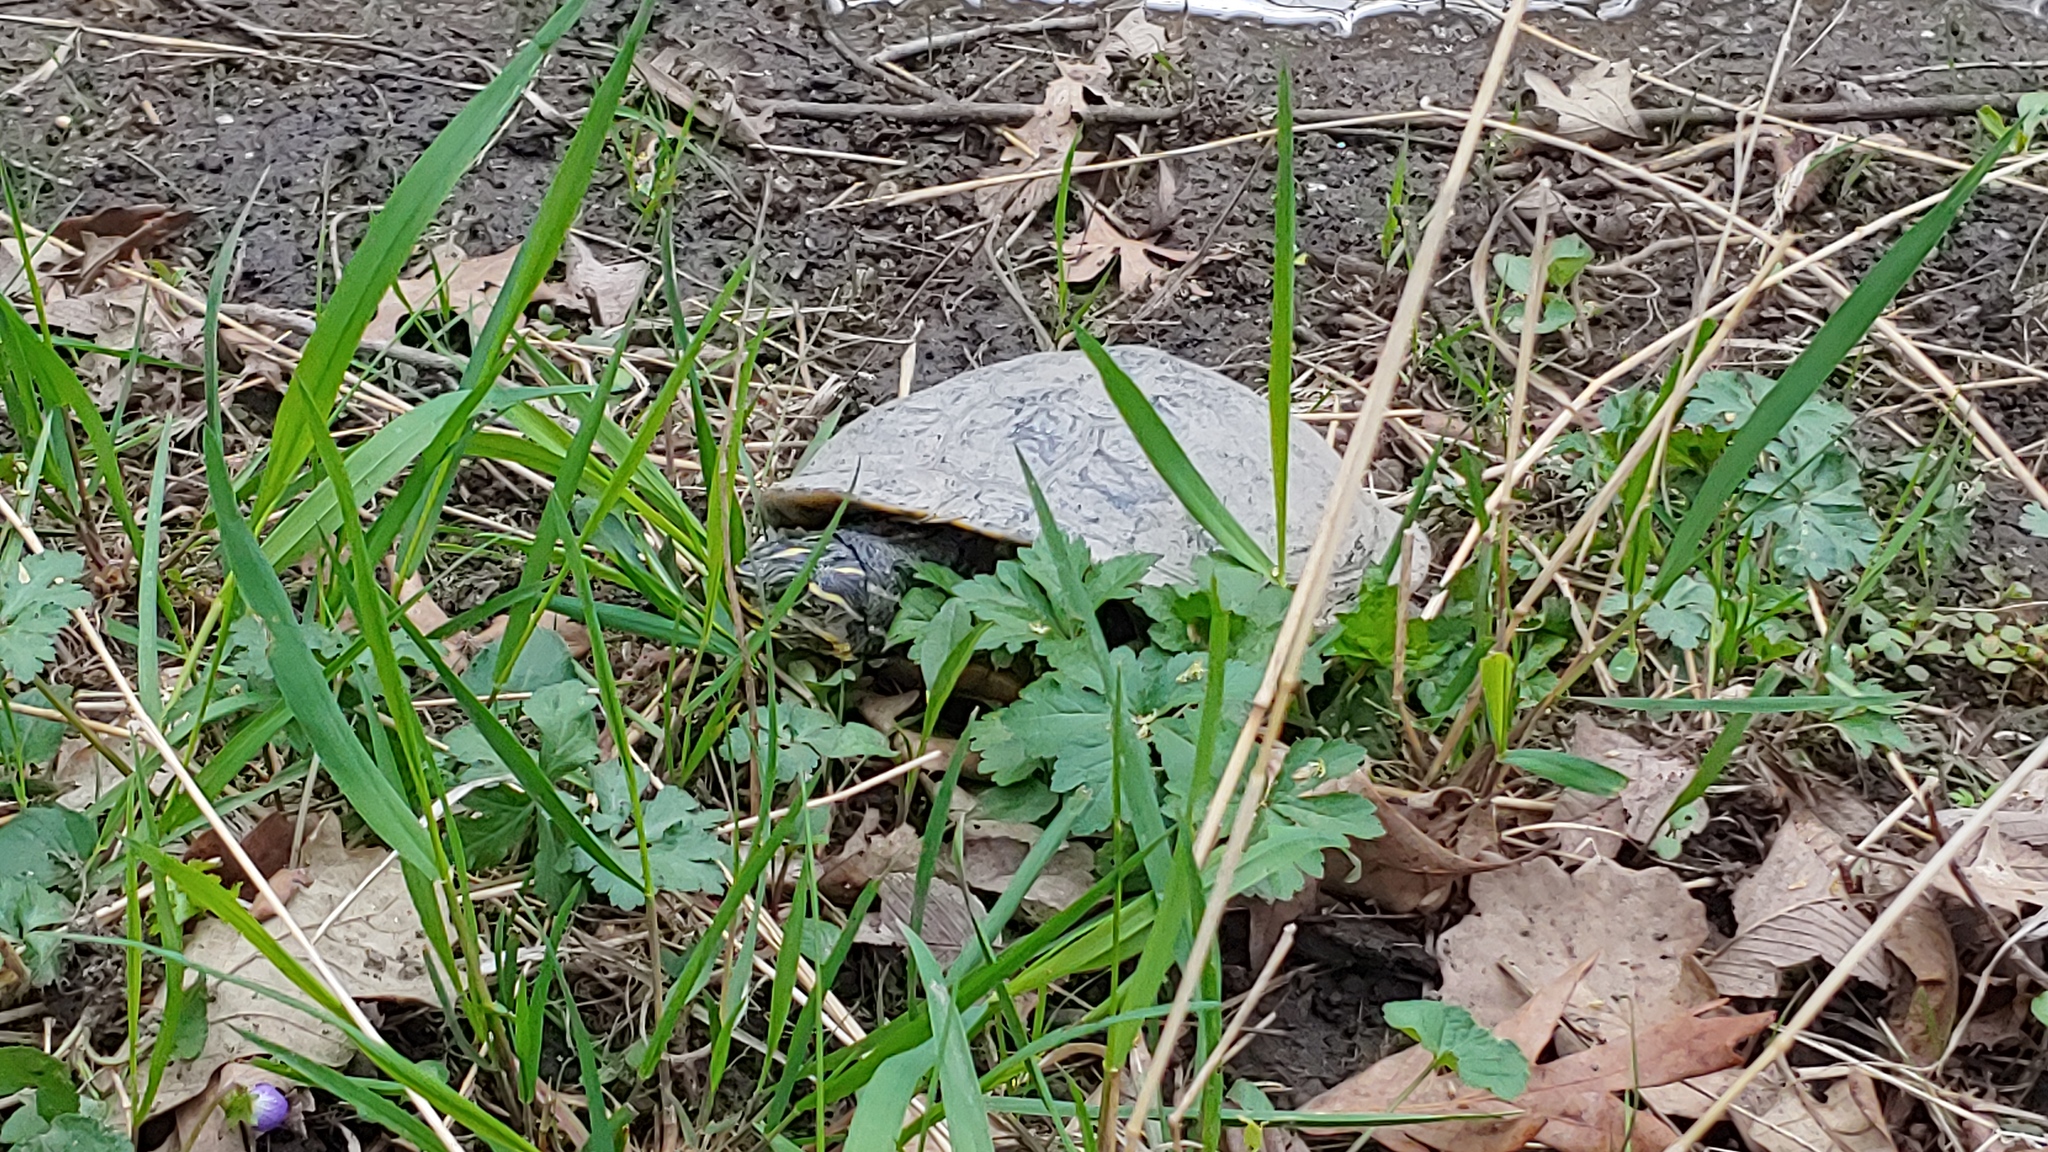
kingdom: Animalia
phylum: Chordata
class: Testudines
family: Emydidae
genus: Trachemys
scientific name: Trachemys scripta
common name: Slider
